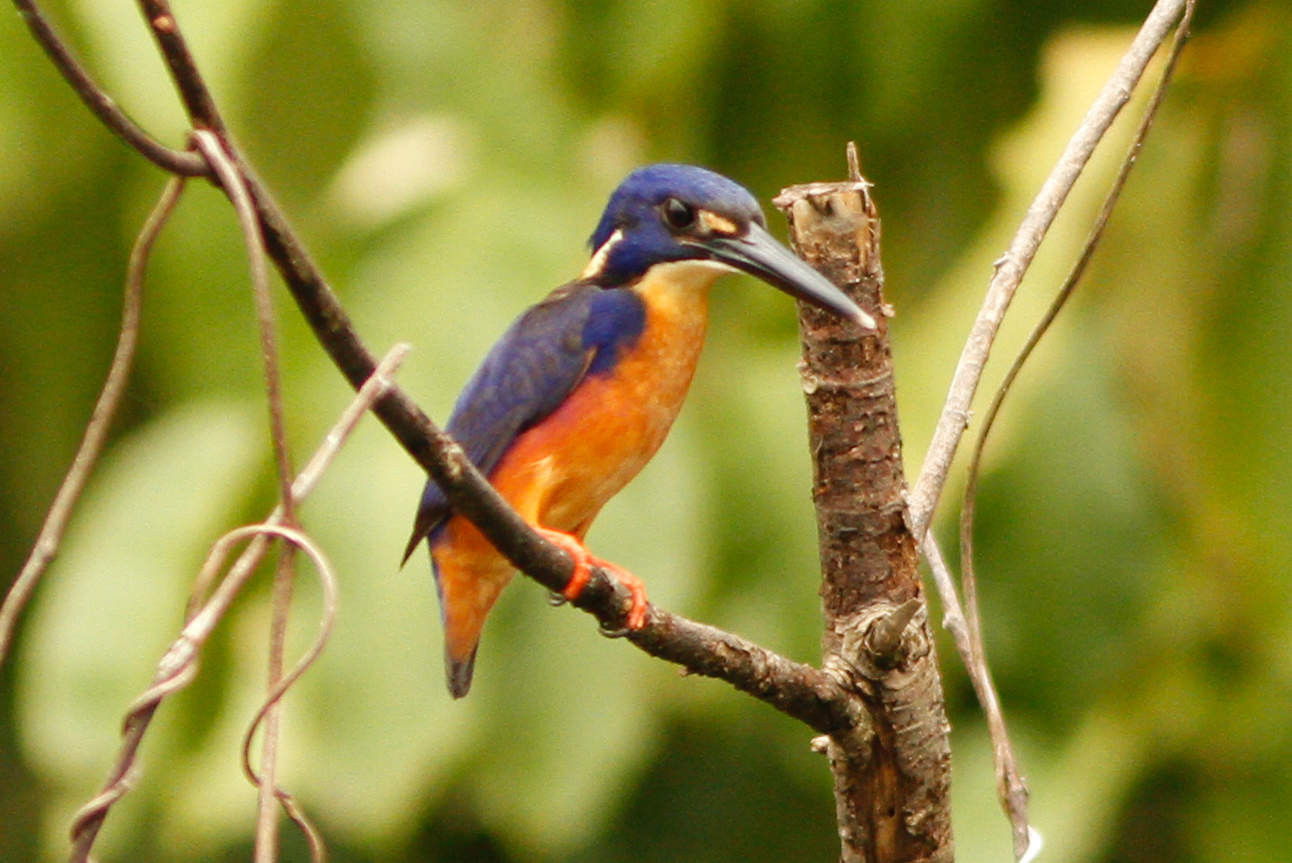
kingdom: Animalia
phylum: Chordata
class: Aves
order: Coraciiformes
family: Alcedinidae
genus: Ceyx
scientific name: Ceyx azureus
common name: Azure kingfisher
